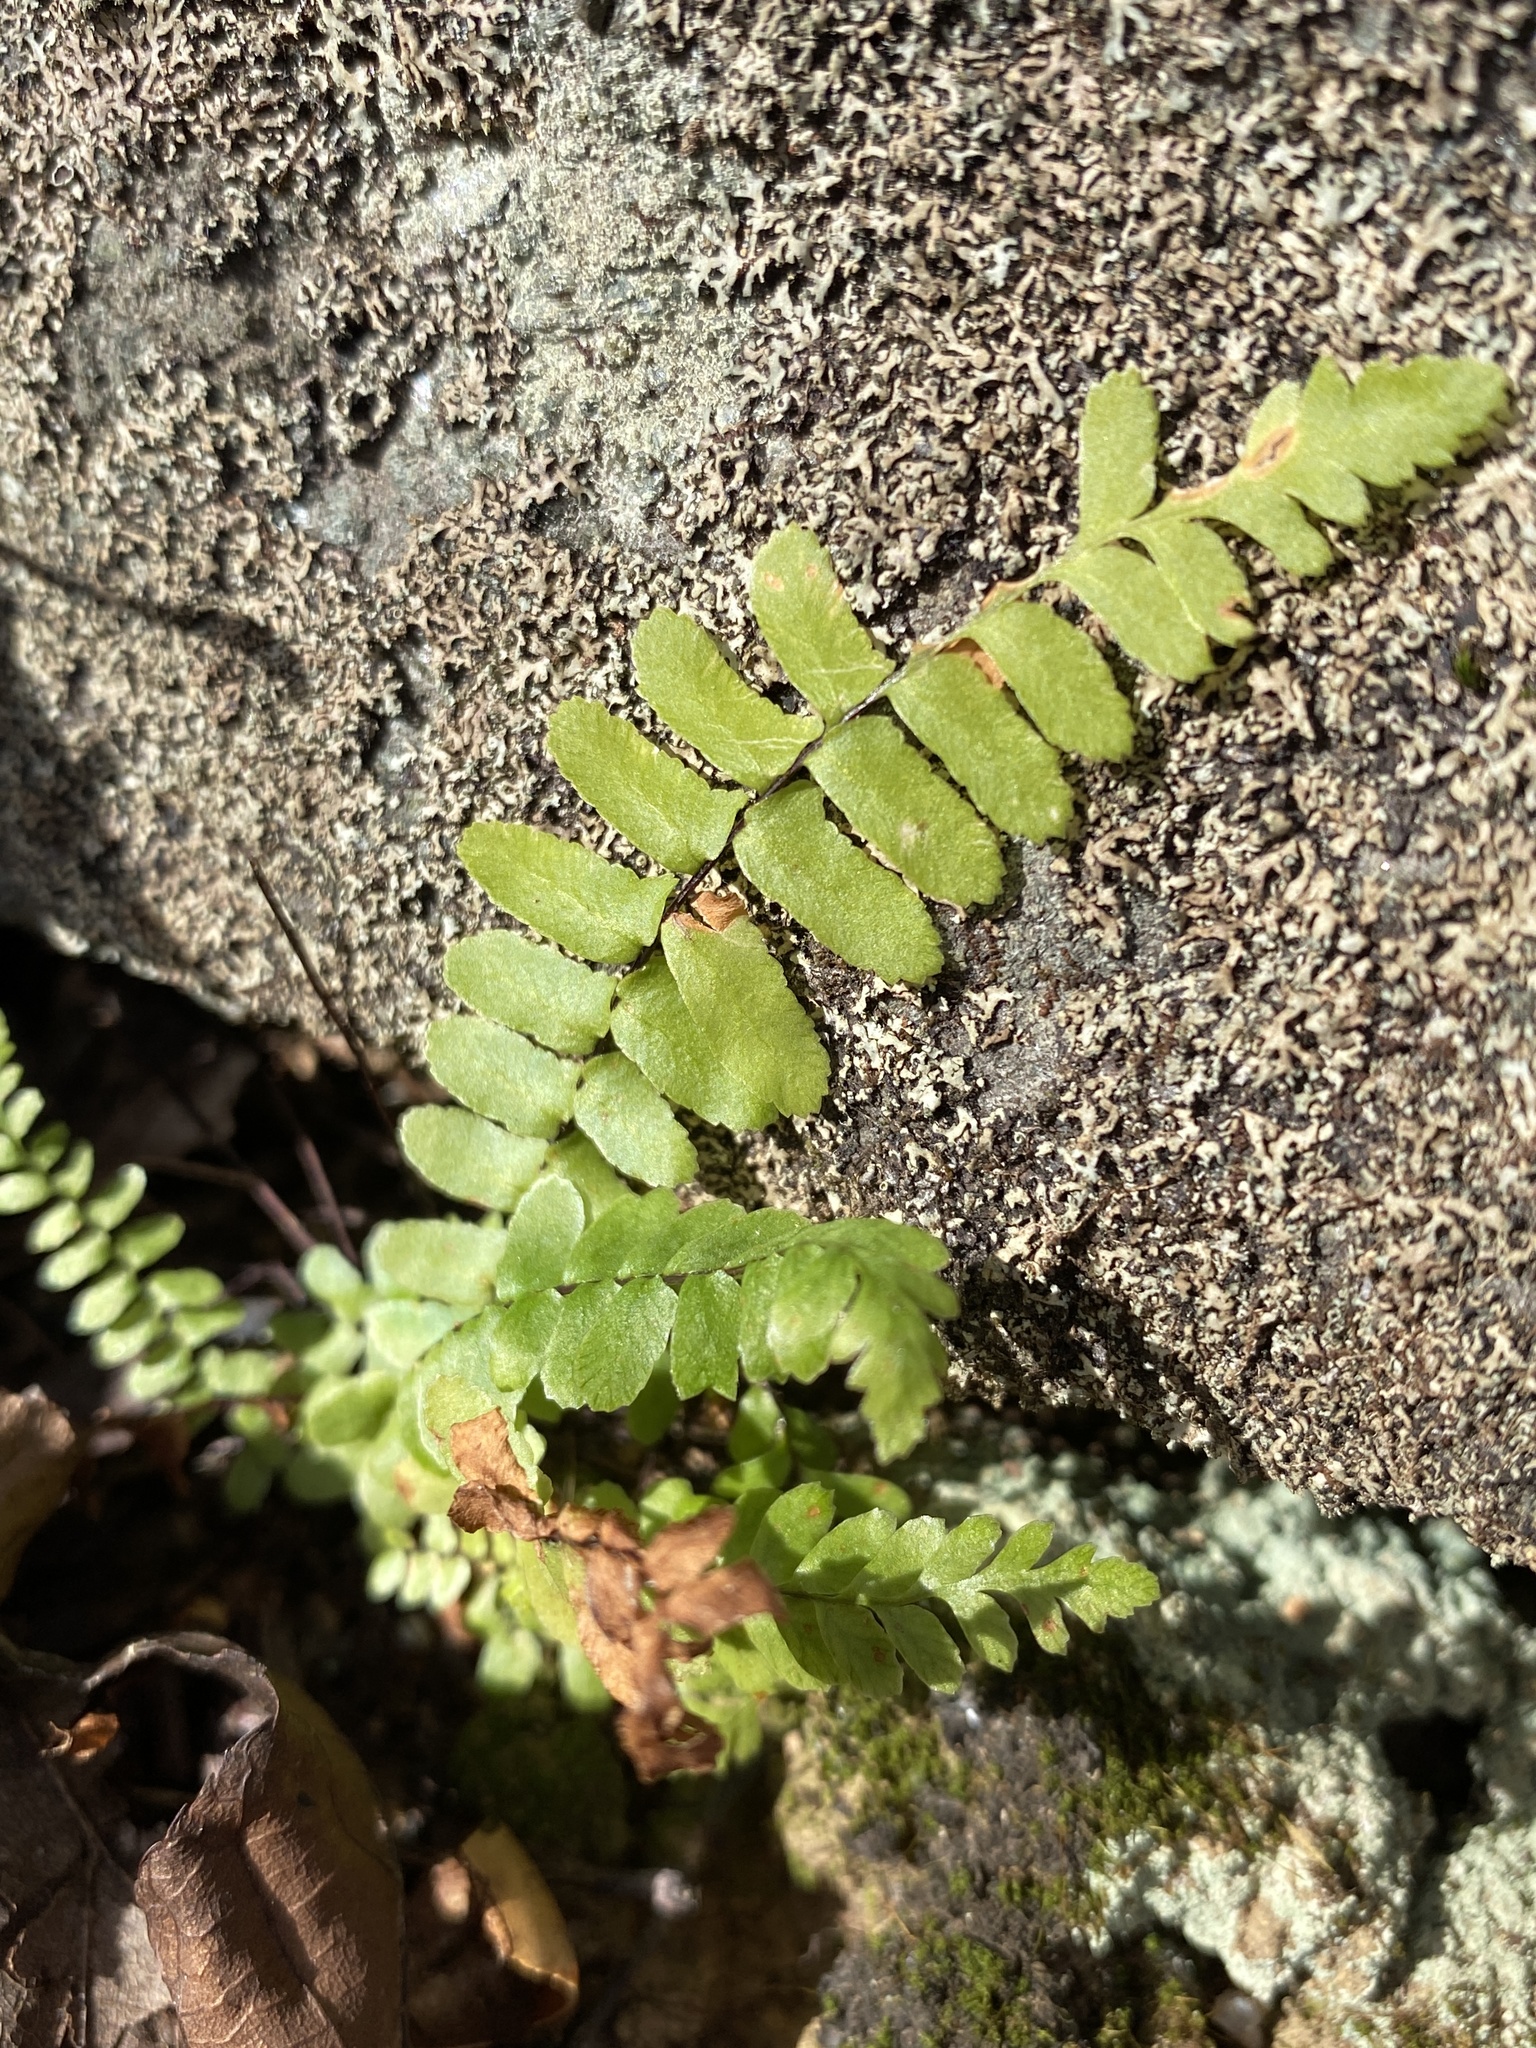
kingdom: Plantae
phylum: Tracheophyta
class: Polypodiopsida
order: Polypodiales
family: Aspleniaceae
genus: Asplenium
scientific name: Asplenium platyneuron
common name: Ebony spleenwort
